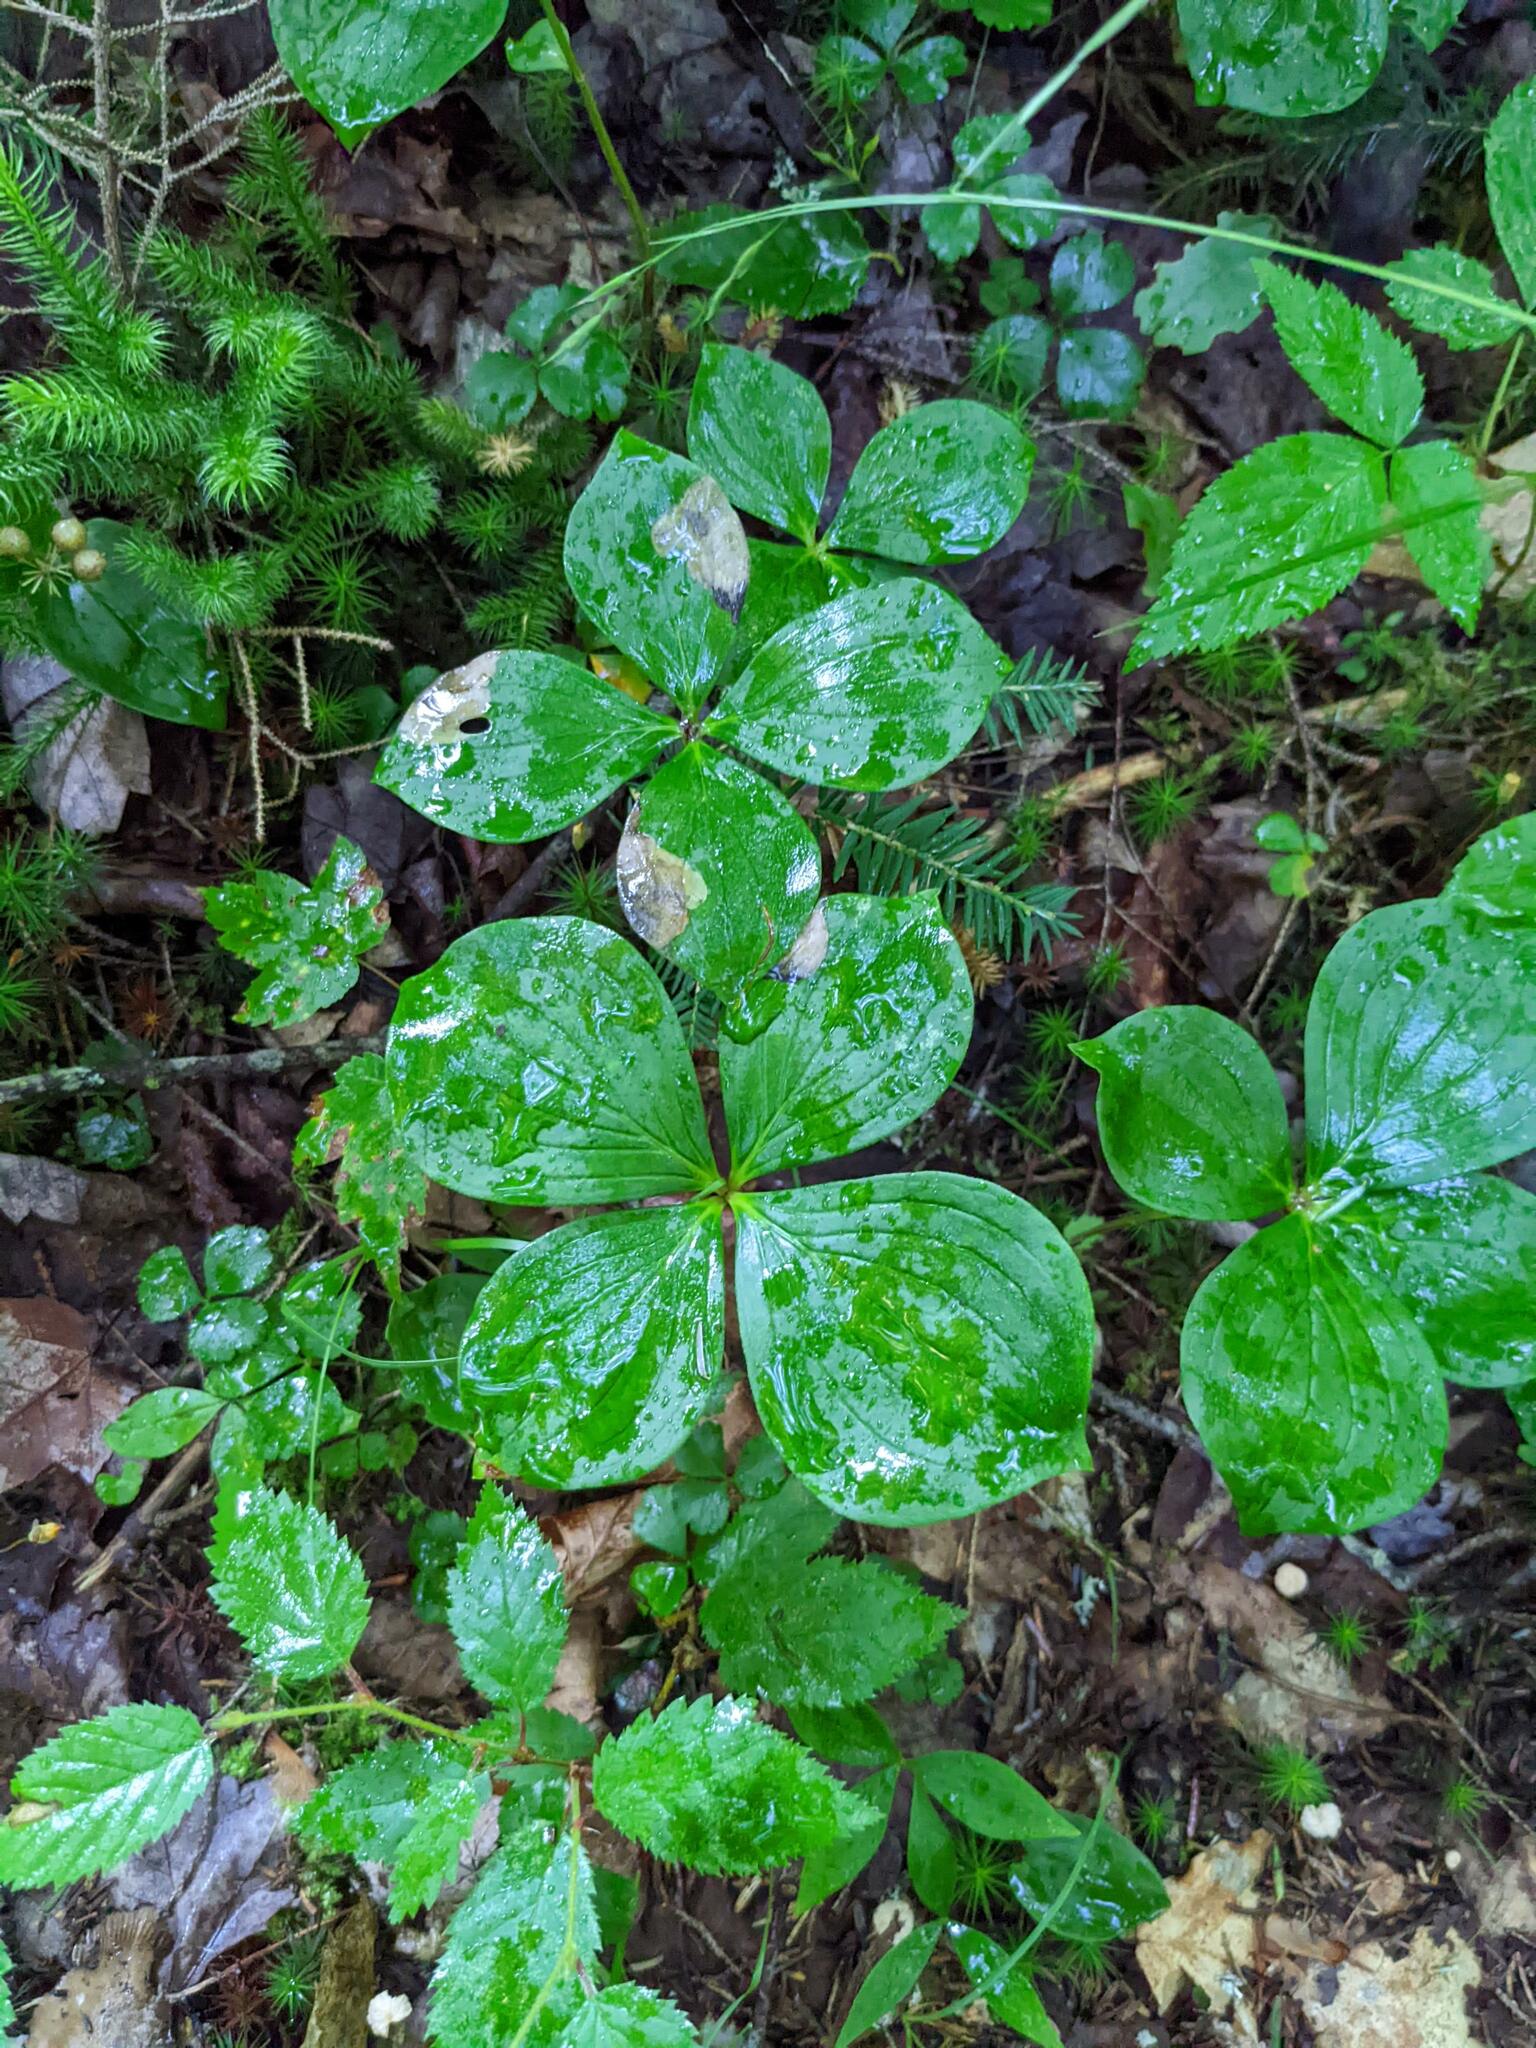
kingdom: Plantae
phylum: Tracheophyta
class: Magnoliopsida
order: Cornales
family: Cornaceae
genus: Cornus
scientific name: Cornus canadensis
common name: Creeping dogwood
